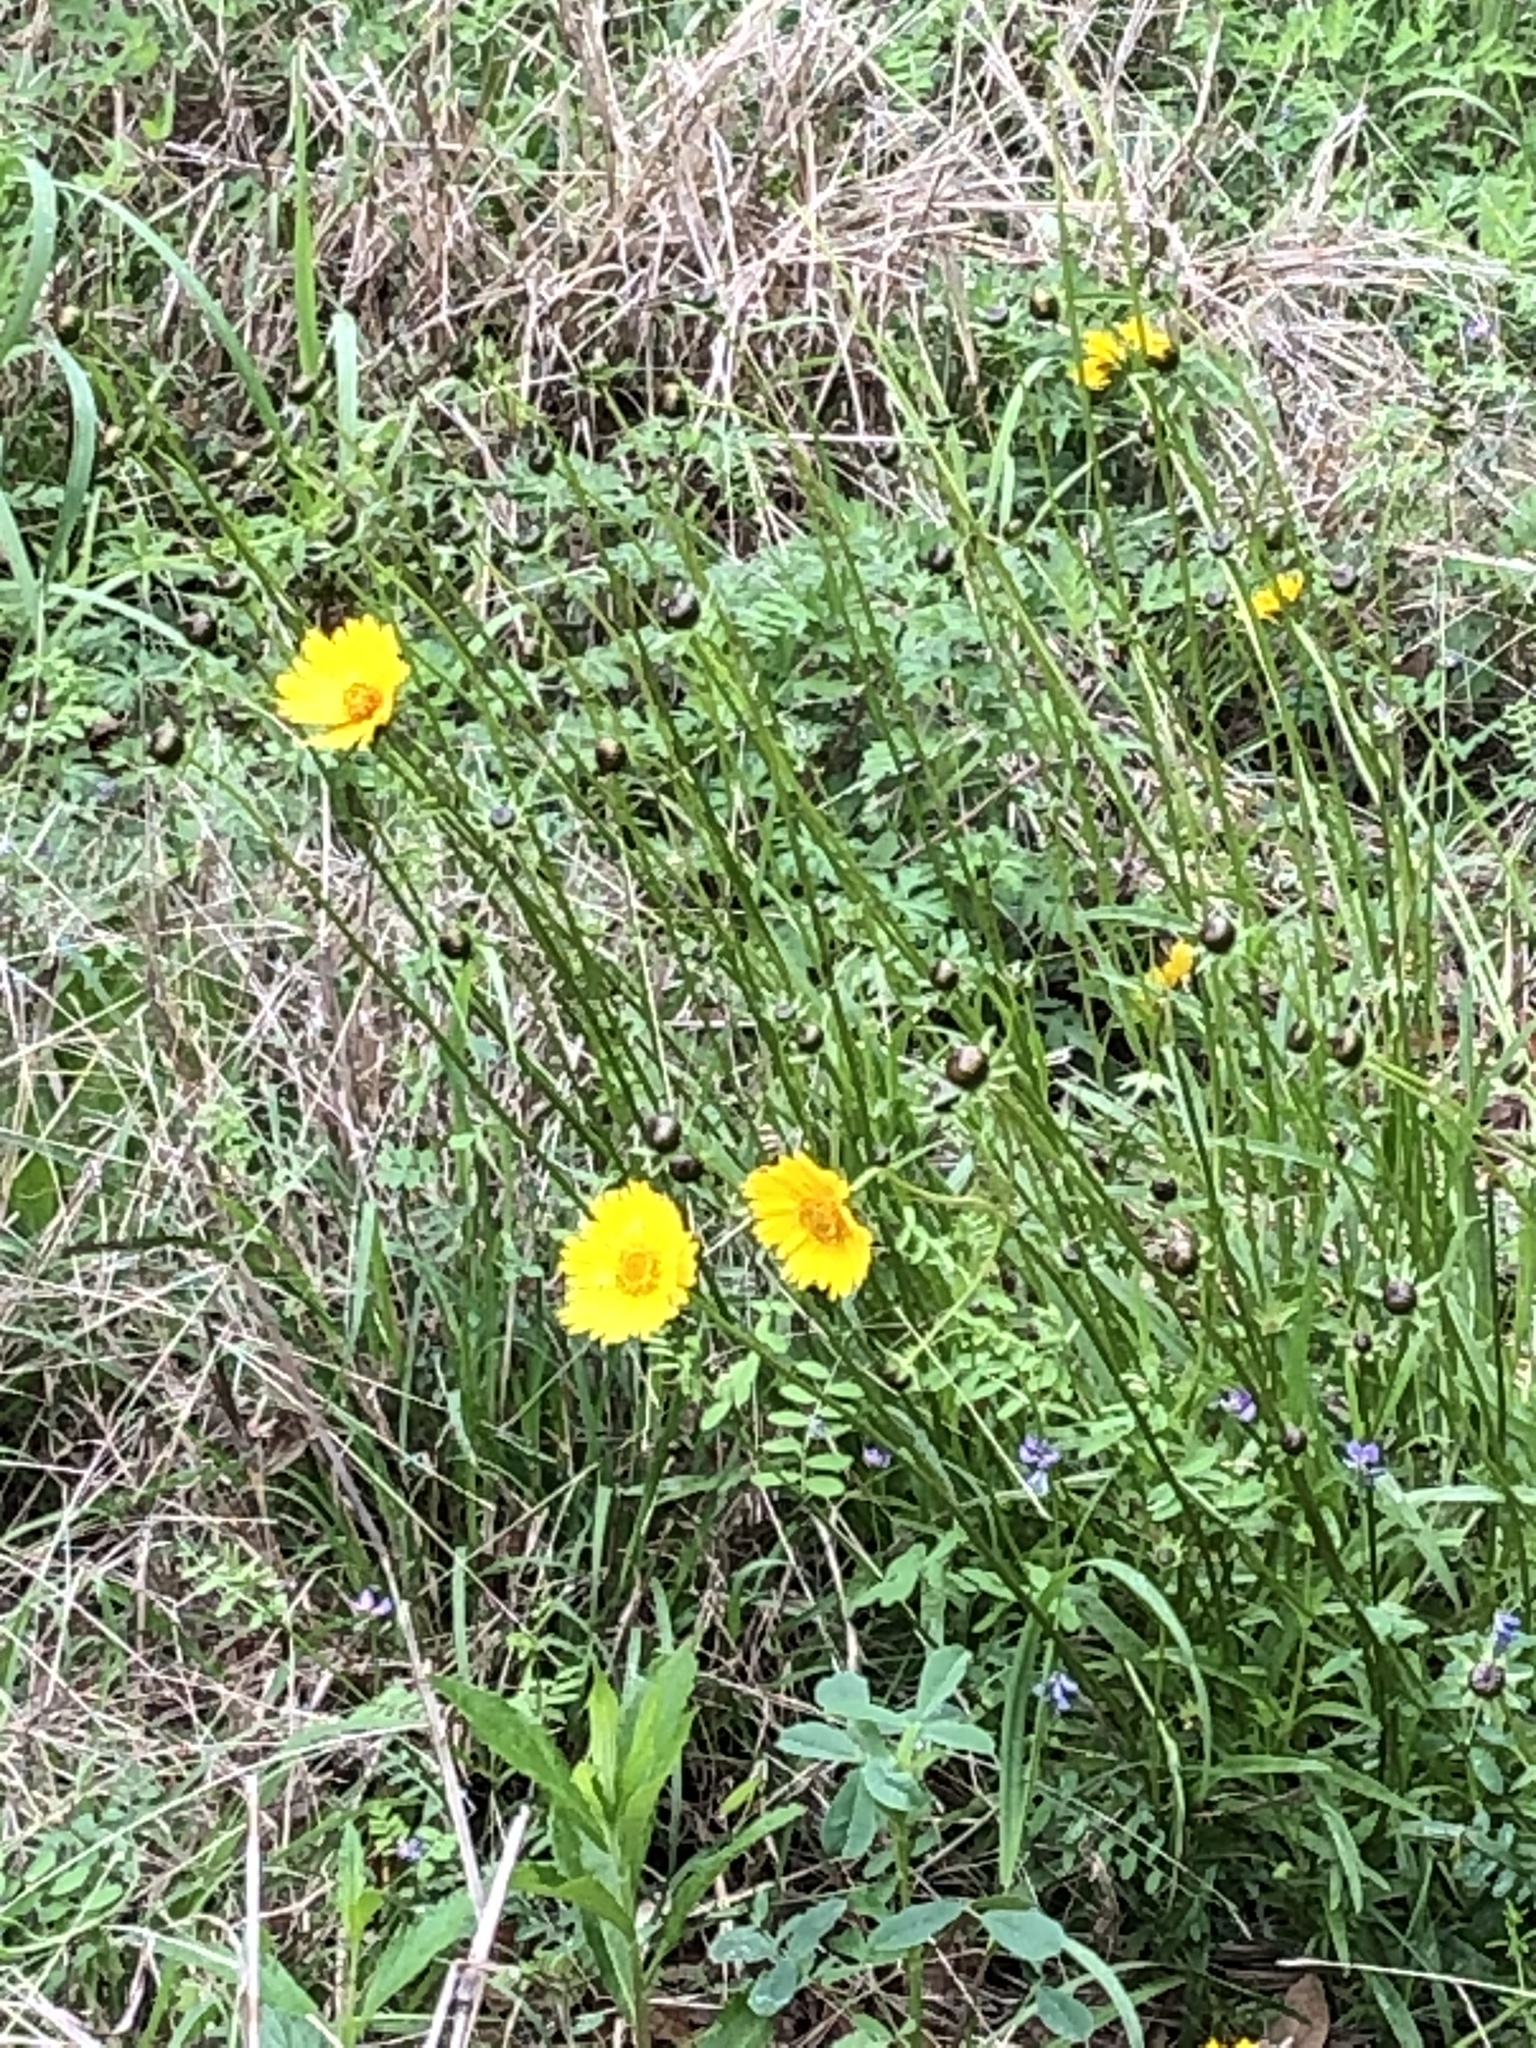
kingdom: Plantae
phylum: Tracheophyta
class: Magnoliopsida
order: Asterales
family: Asteraceae
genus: Coreopsis
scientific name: Coreopsis lanceolata
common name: Garden coreopsis
